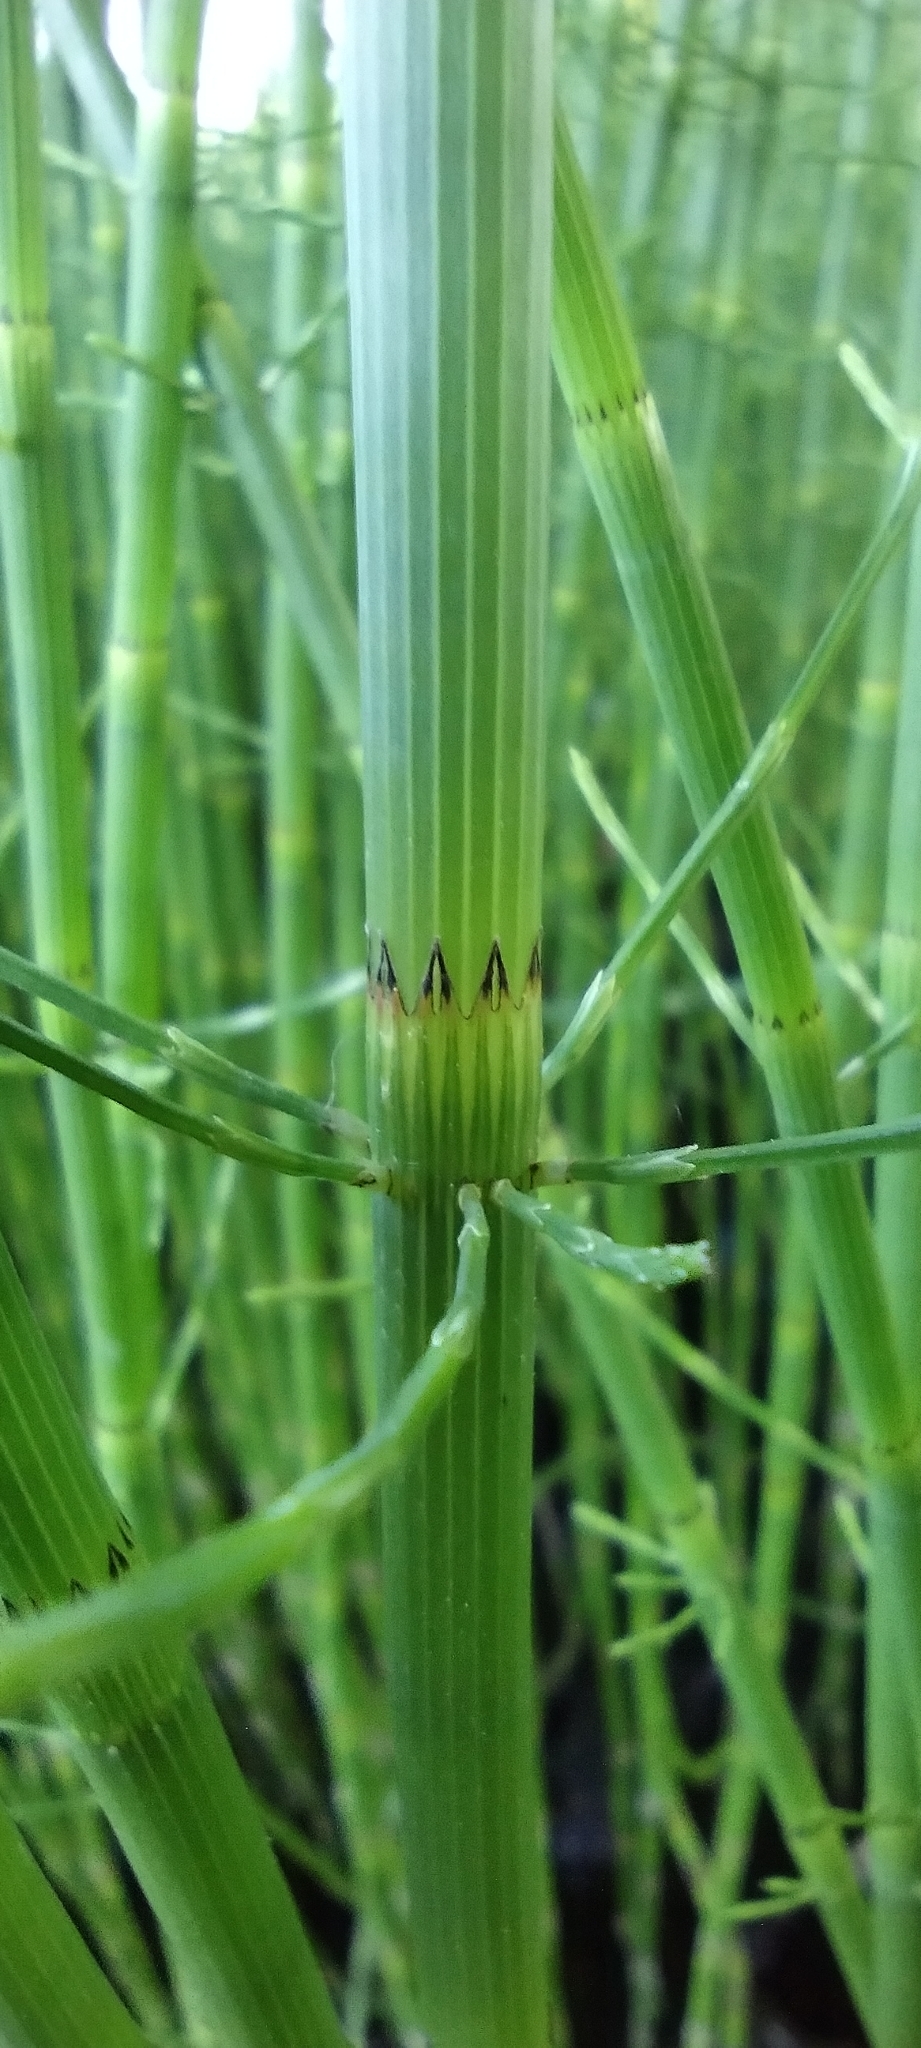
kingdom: Plantae
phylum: Tracheophyta
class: Polypodiopsida
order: Equisetales
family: Equisetaceae
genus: Equisetum
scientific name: Equisetum fluviatile
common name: Water horsetail
